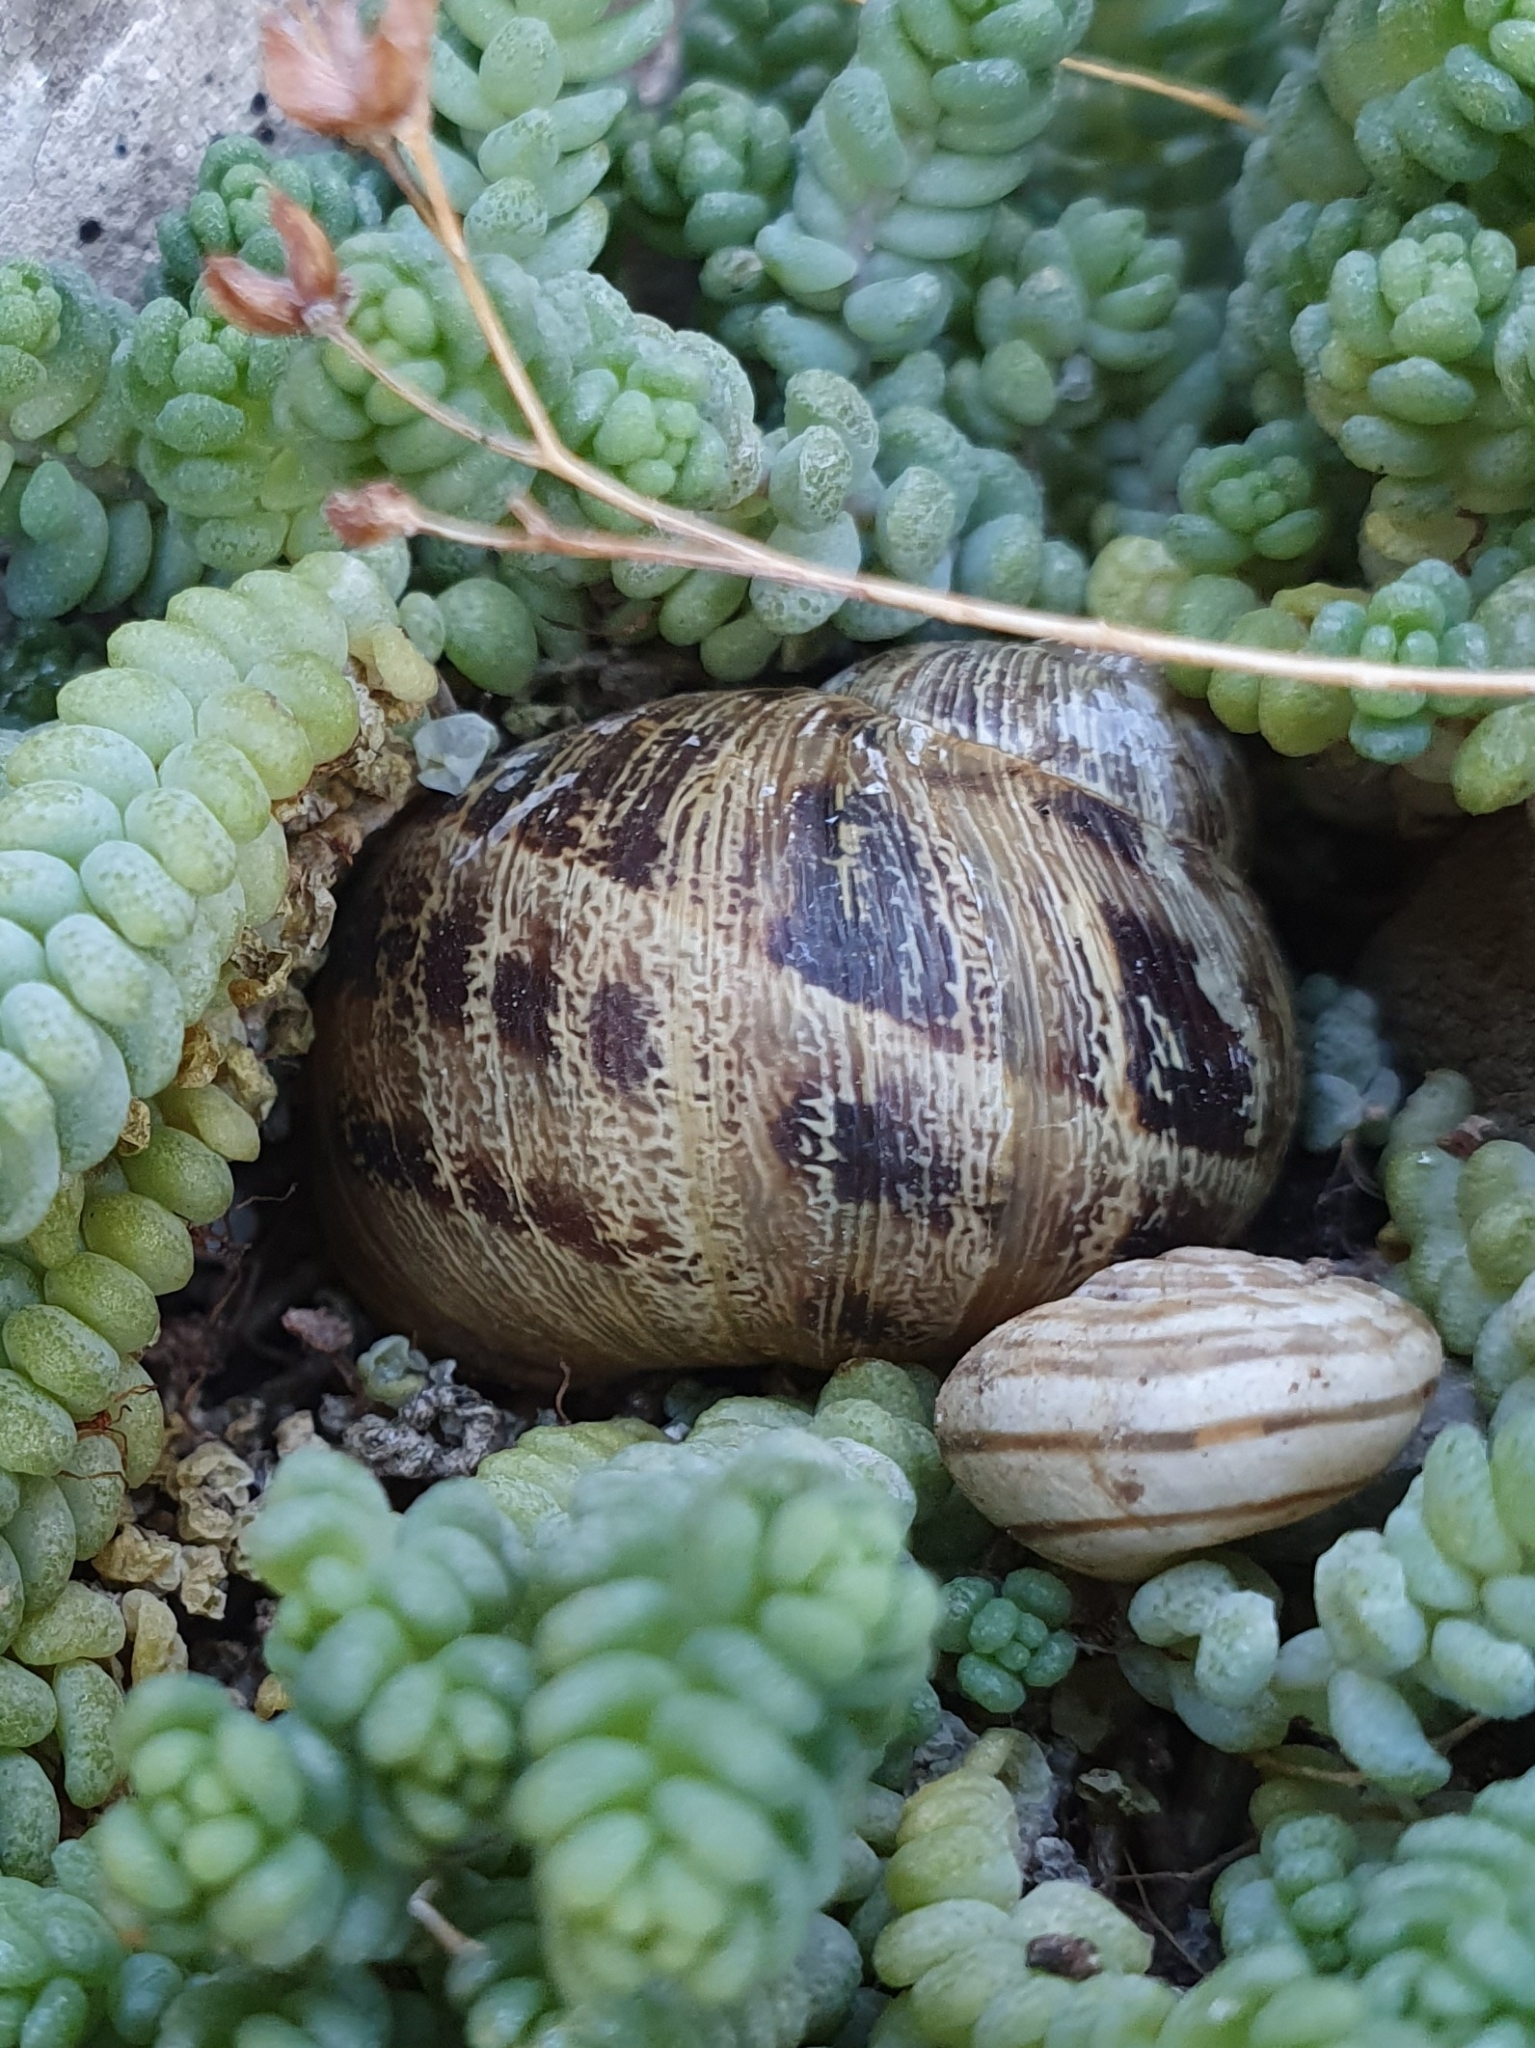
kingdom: Animalia
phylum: Mollusca
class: Gastropoda
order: Stylommatophora
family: Helicidae
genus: Cornu
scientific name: Cornu aspersum
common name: Brown garden snail
